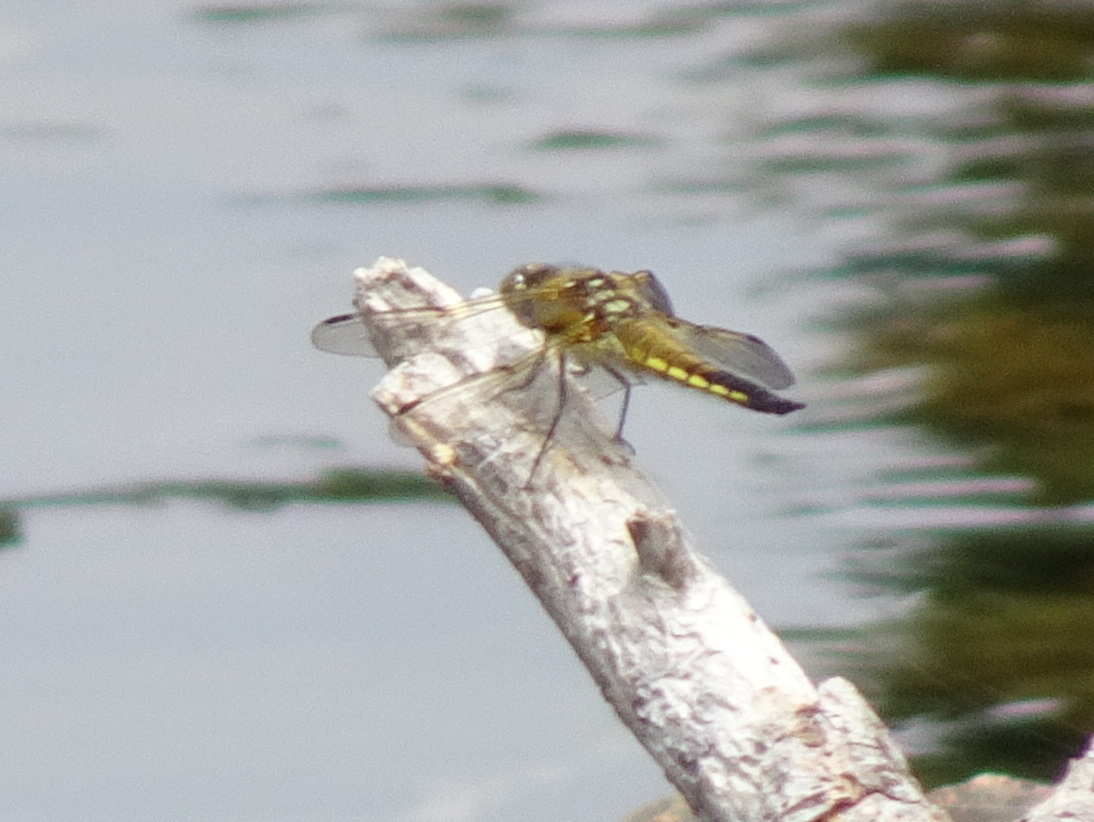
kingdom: Animalia
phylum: Arthropoda
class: Insecta
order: Odonata
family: Libellulidae
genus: Libellula
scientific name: Libellula quadrimaculata
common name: Four-spotted chaser
